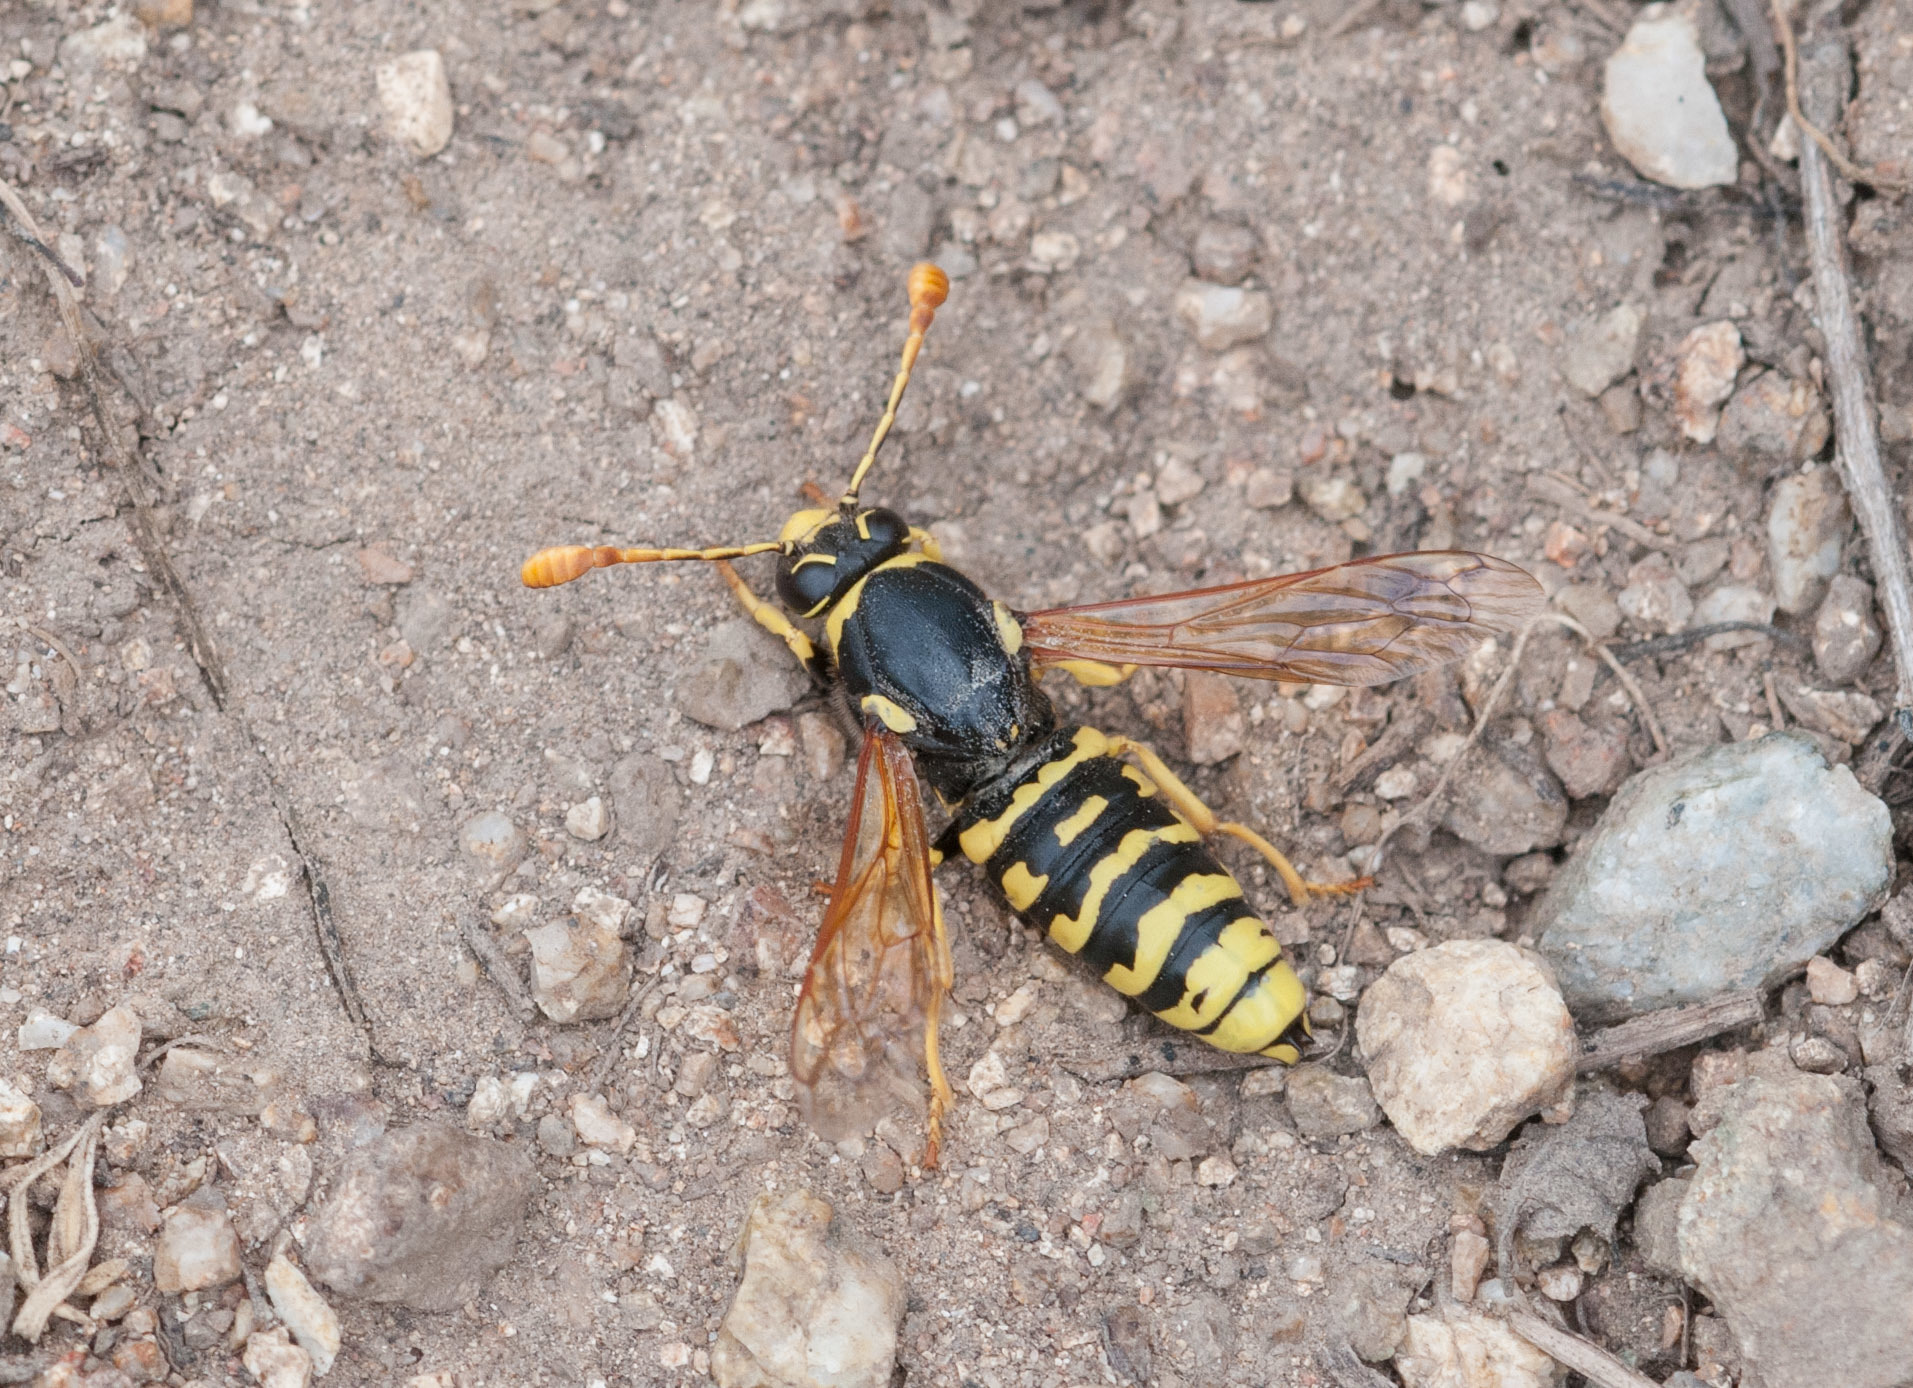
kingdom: Animalia
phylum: Arthropoda
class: Insecta
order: Hymenoptera
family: Masaridae
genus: Pseudomasaris
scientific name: Pseudomasaris vespoides
